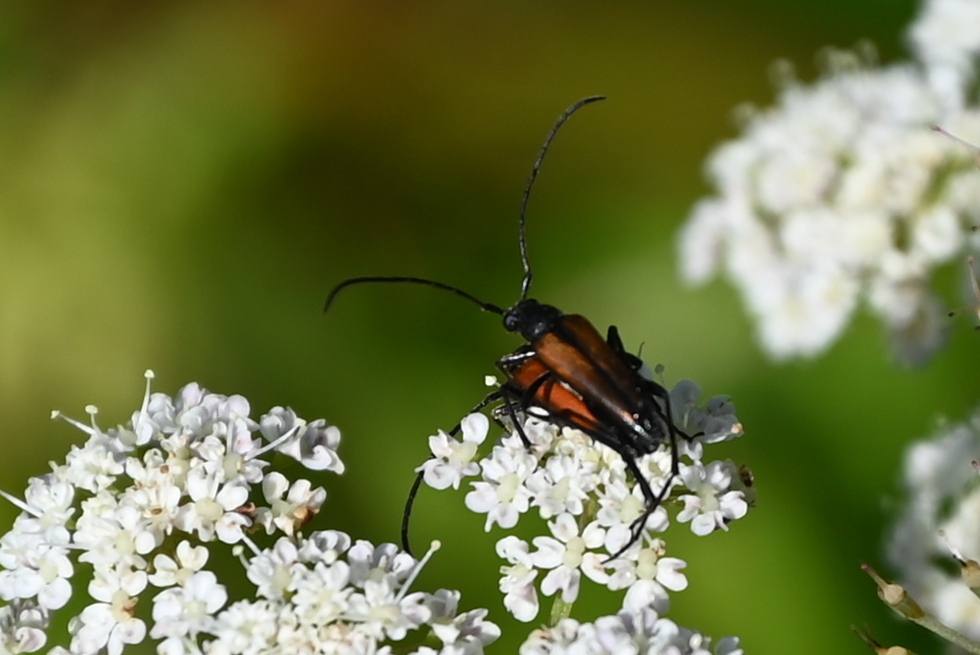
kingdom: Animalia
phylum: Arthropoda
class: Insecta
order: Coleoptera
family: Cerambycidae
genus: Stenurella
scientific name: Stenurella melanura
